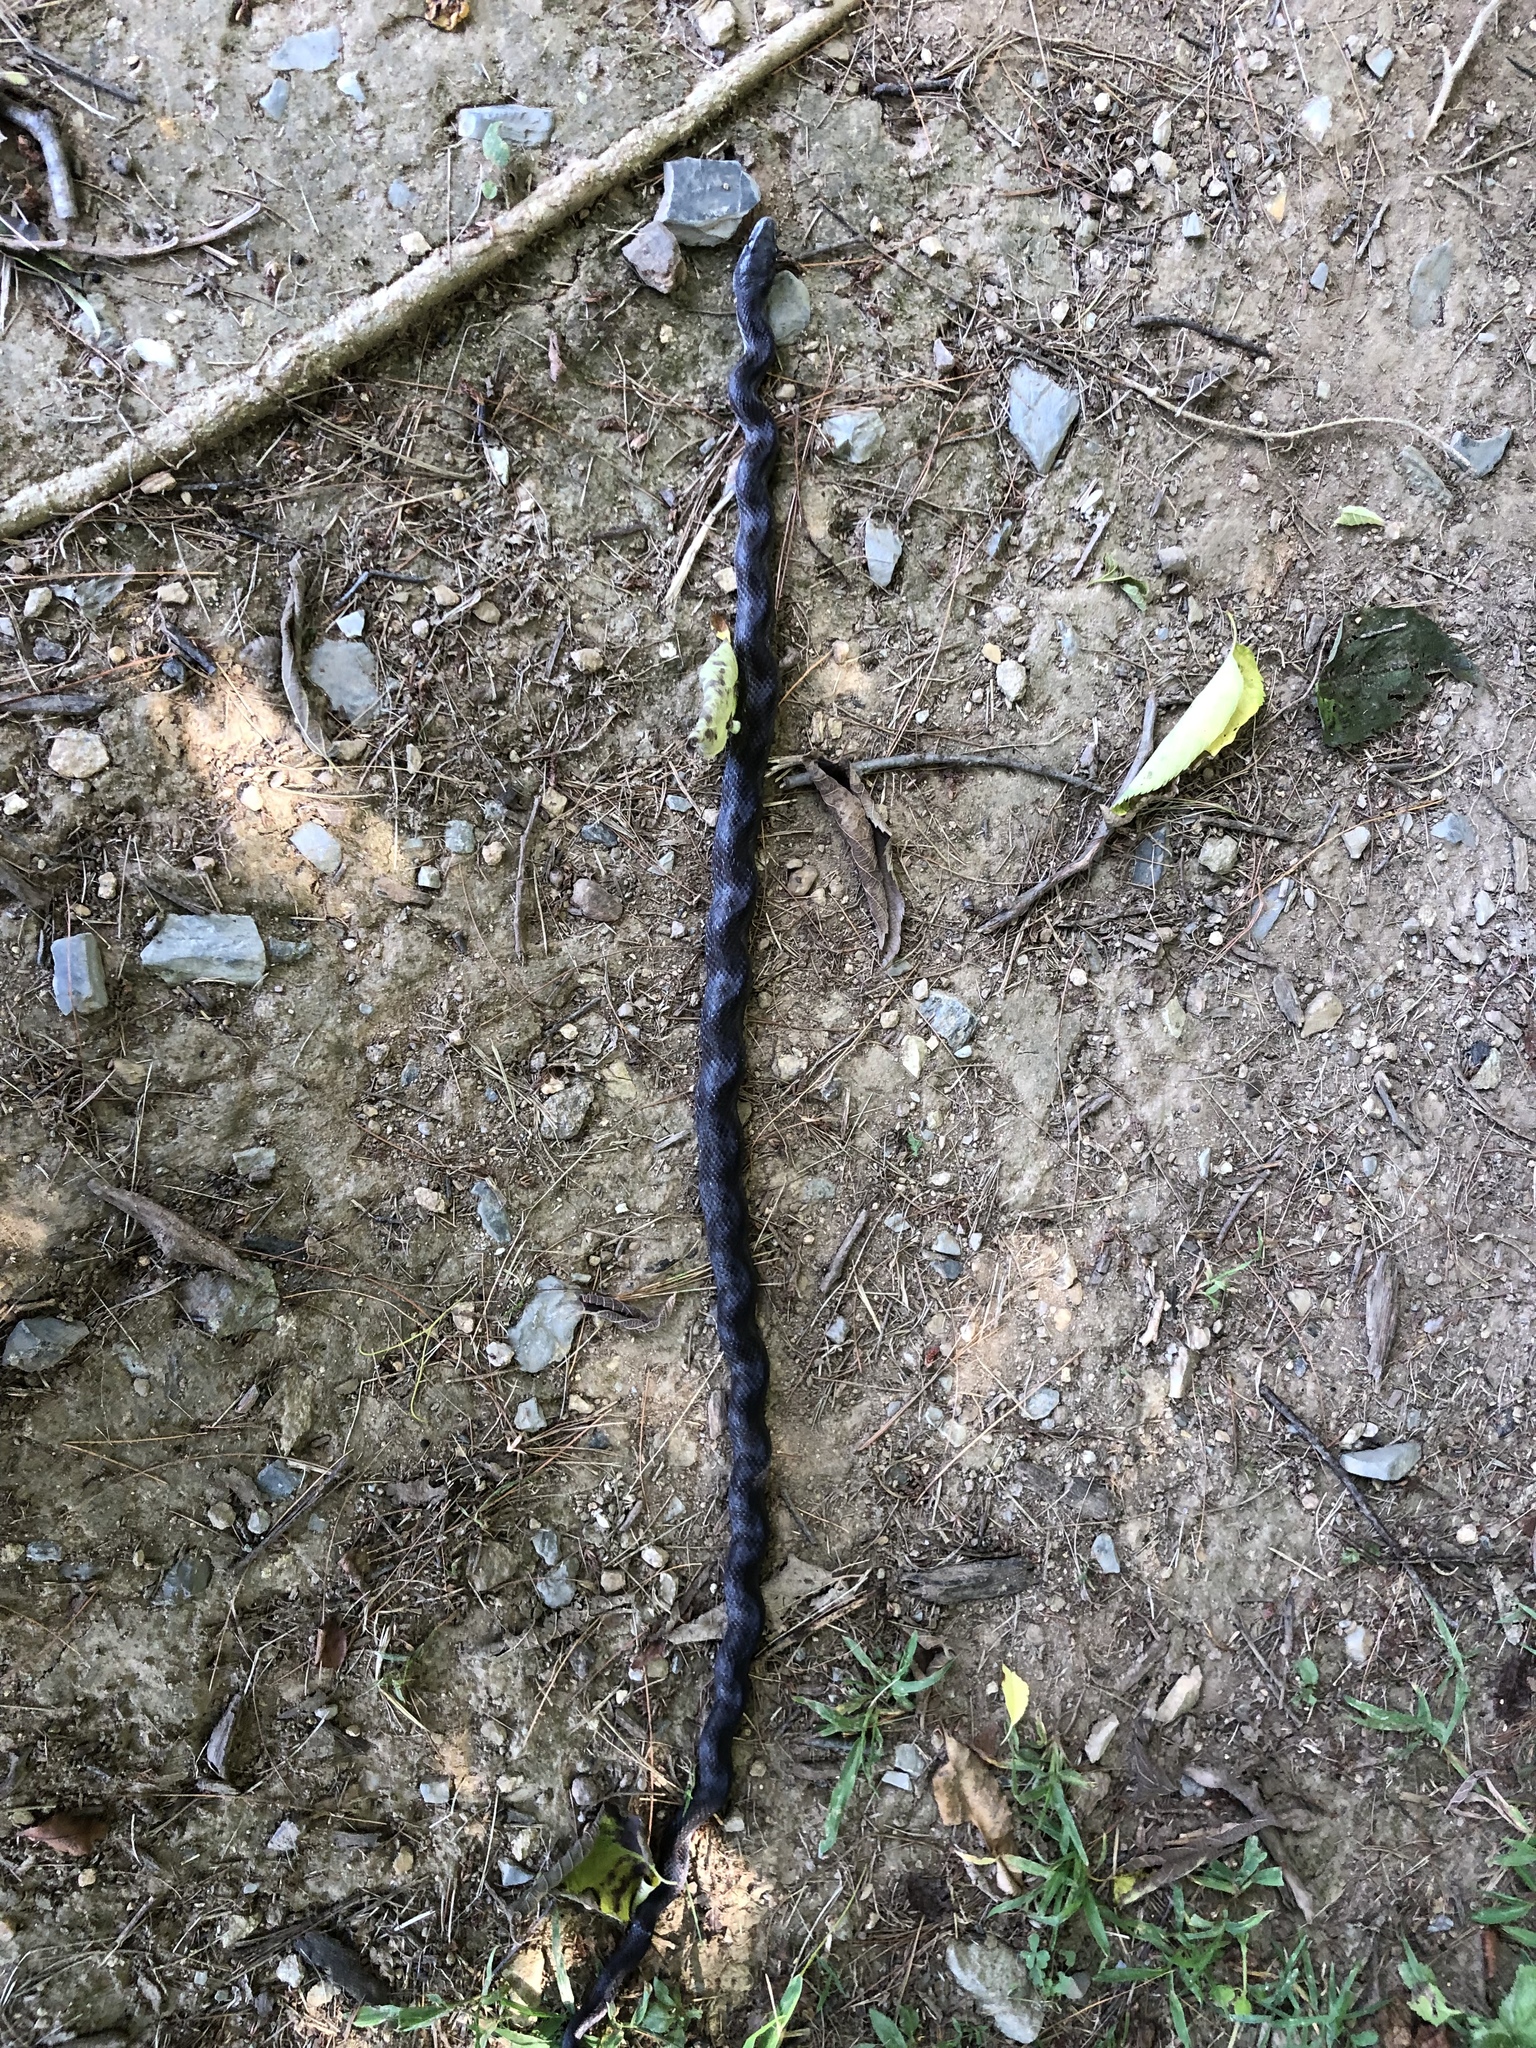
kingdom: Animalia
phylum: Chordata
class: Squamata
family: Colubridae
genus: Pantherophis
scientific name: Pantherophis alleghaniensis
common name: Eastern rat snake
